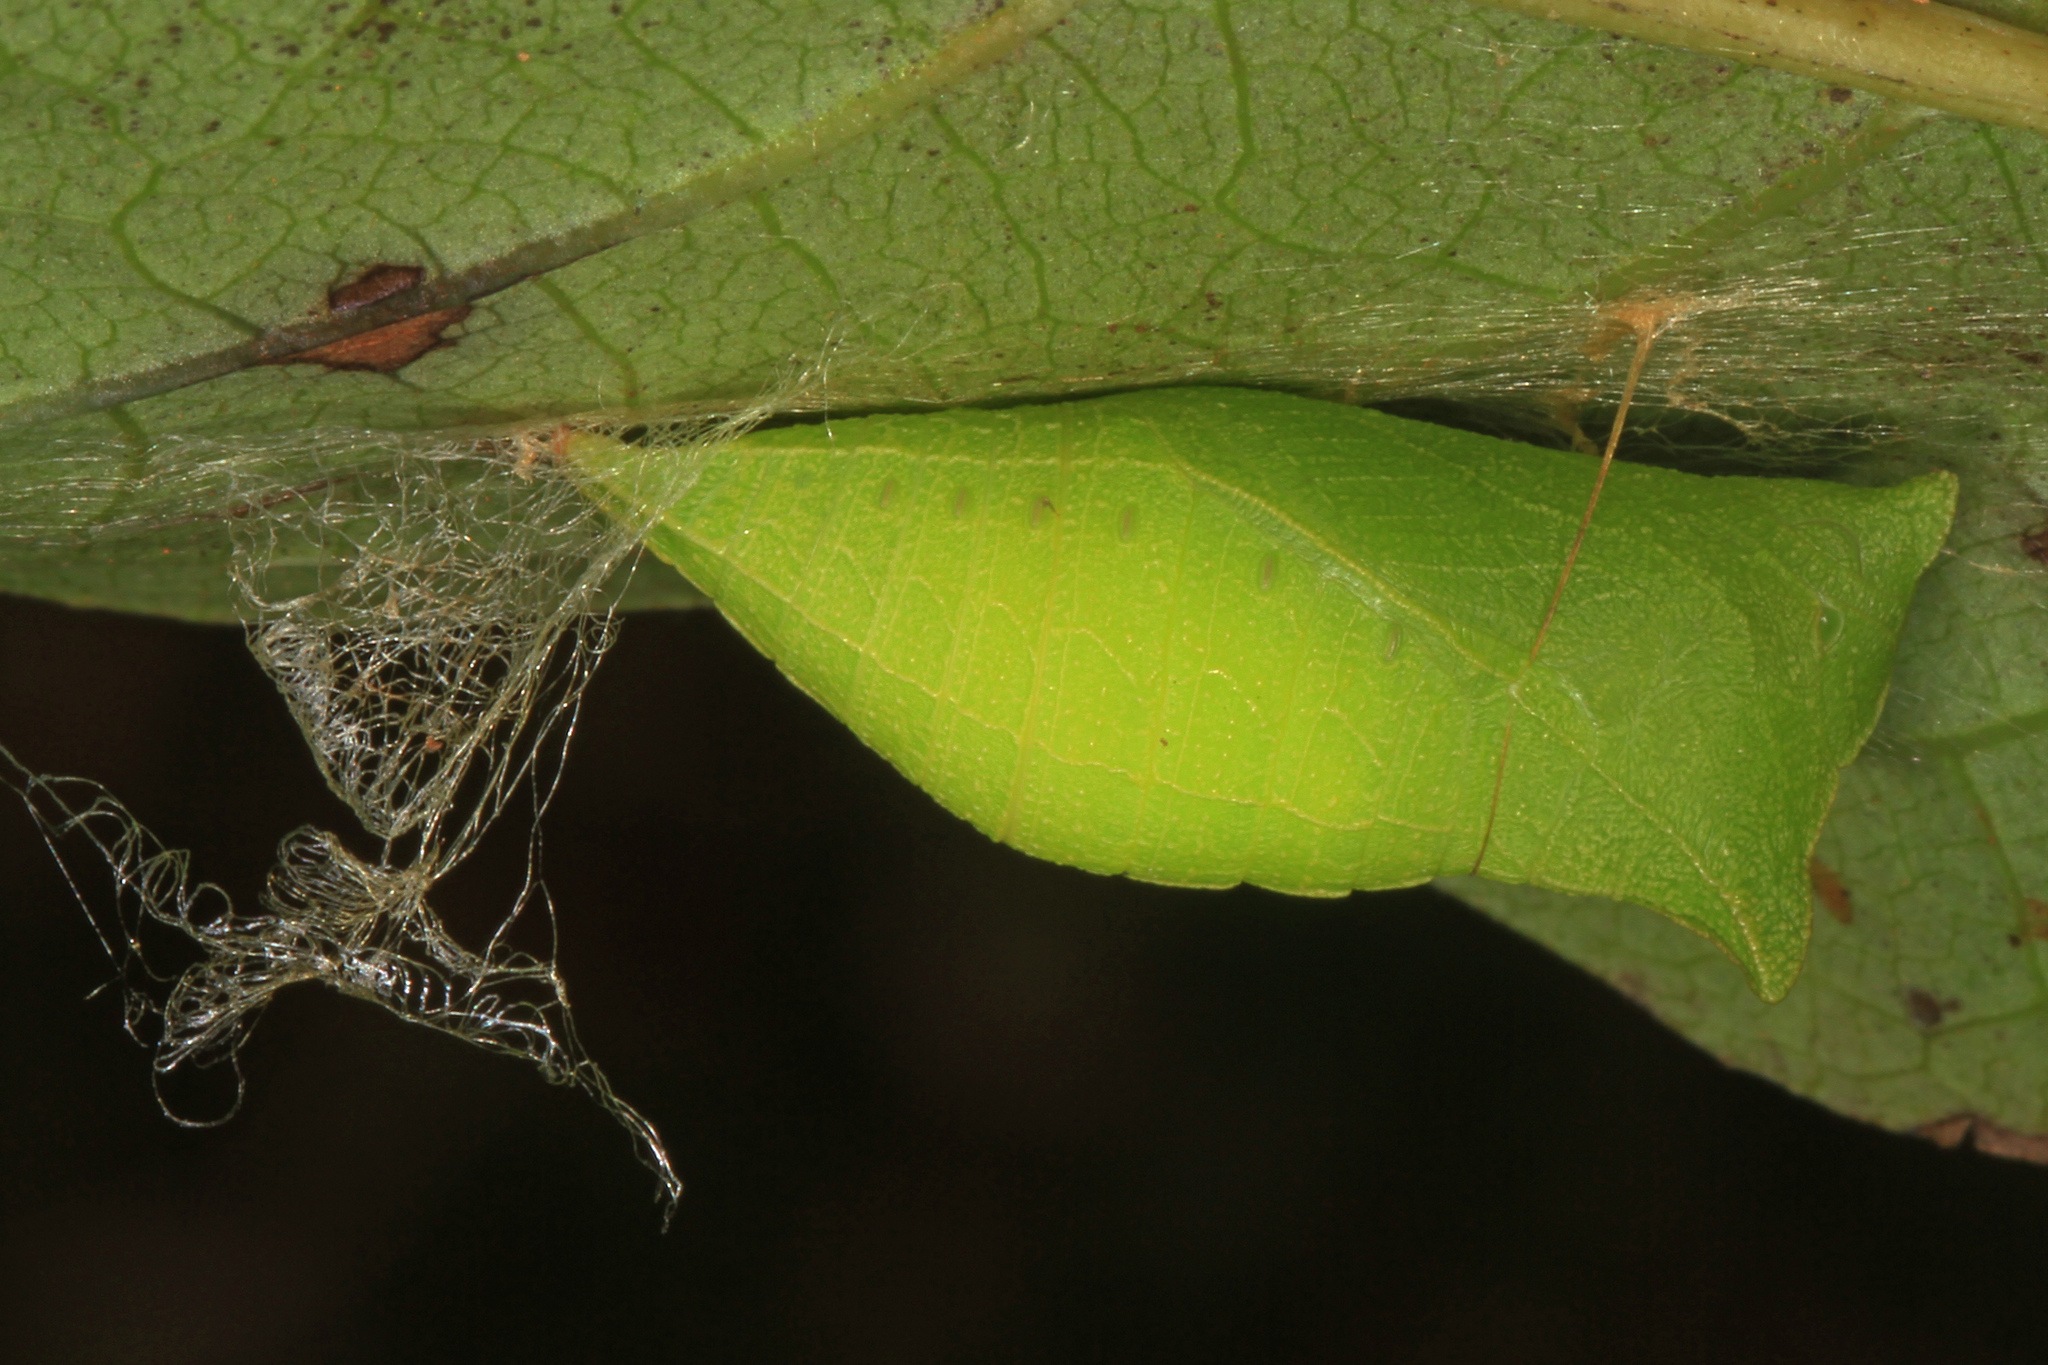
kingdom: Animalia
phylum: Arthropoda
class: Insecta
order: Lepidoptera
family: Papilionidae
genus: Protographium
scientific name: Protographium marcellus
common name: Zebra swallowtail
